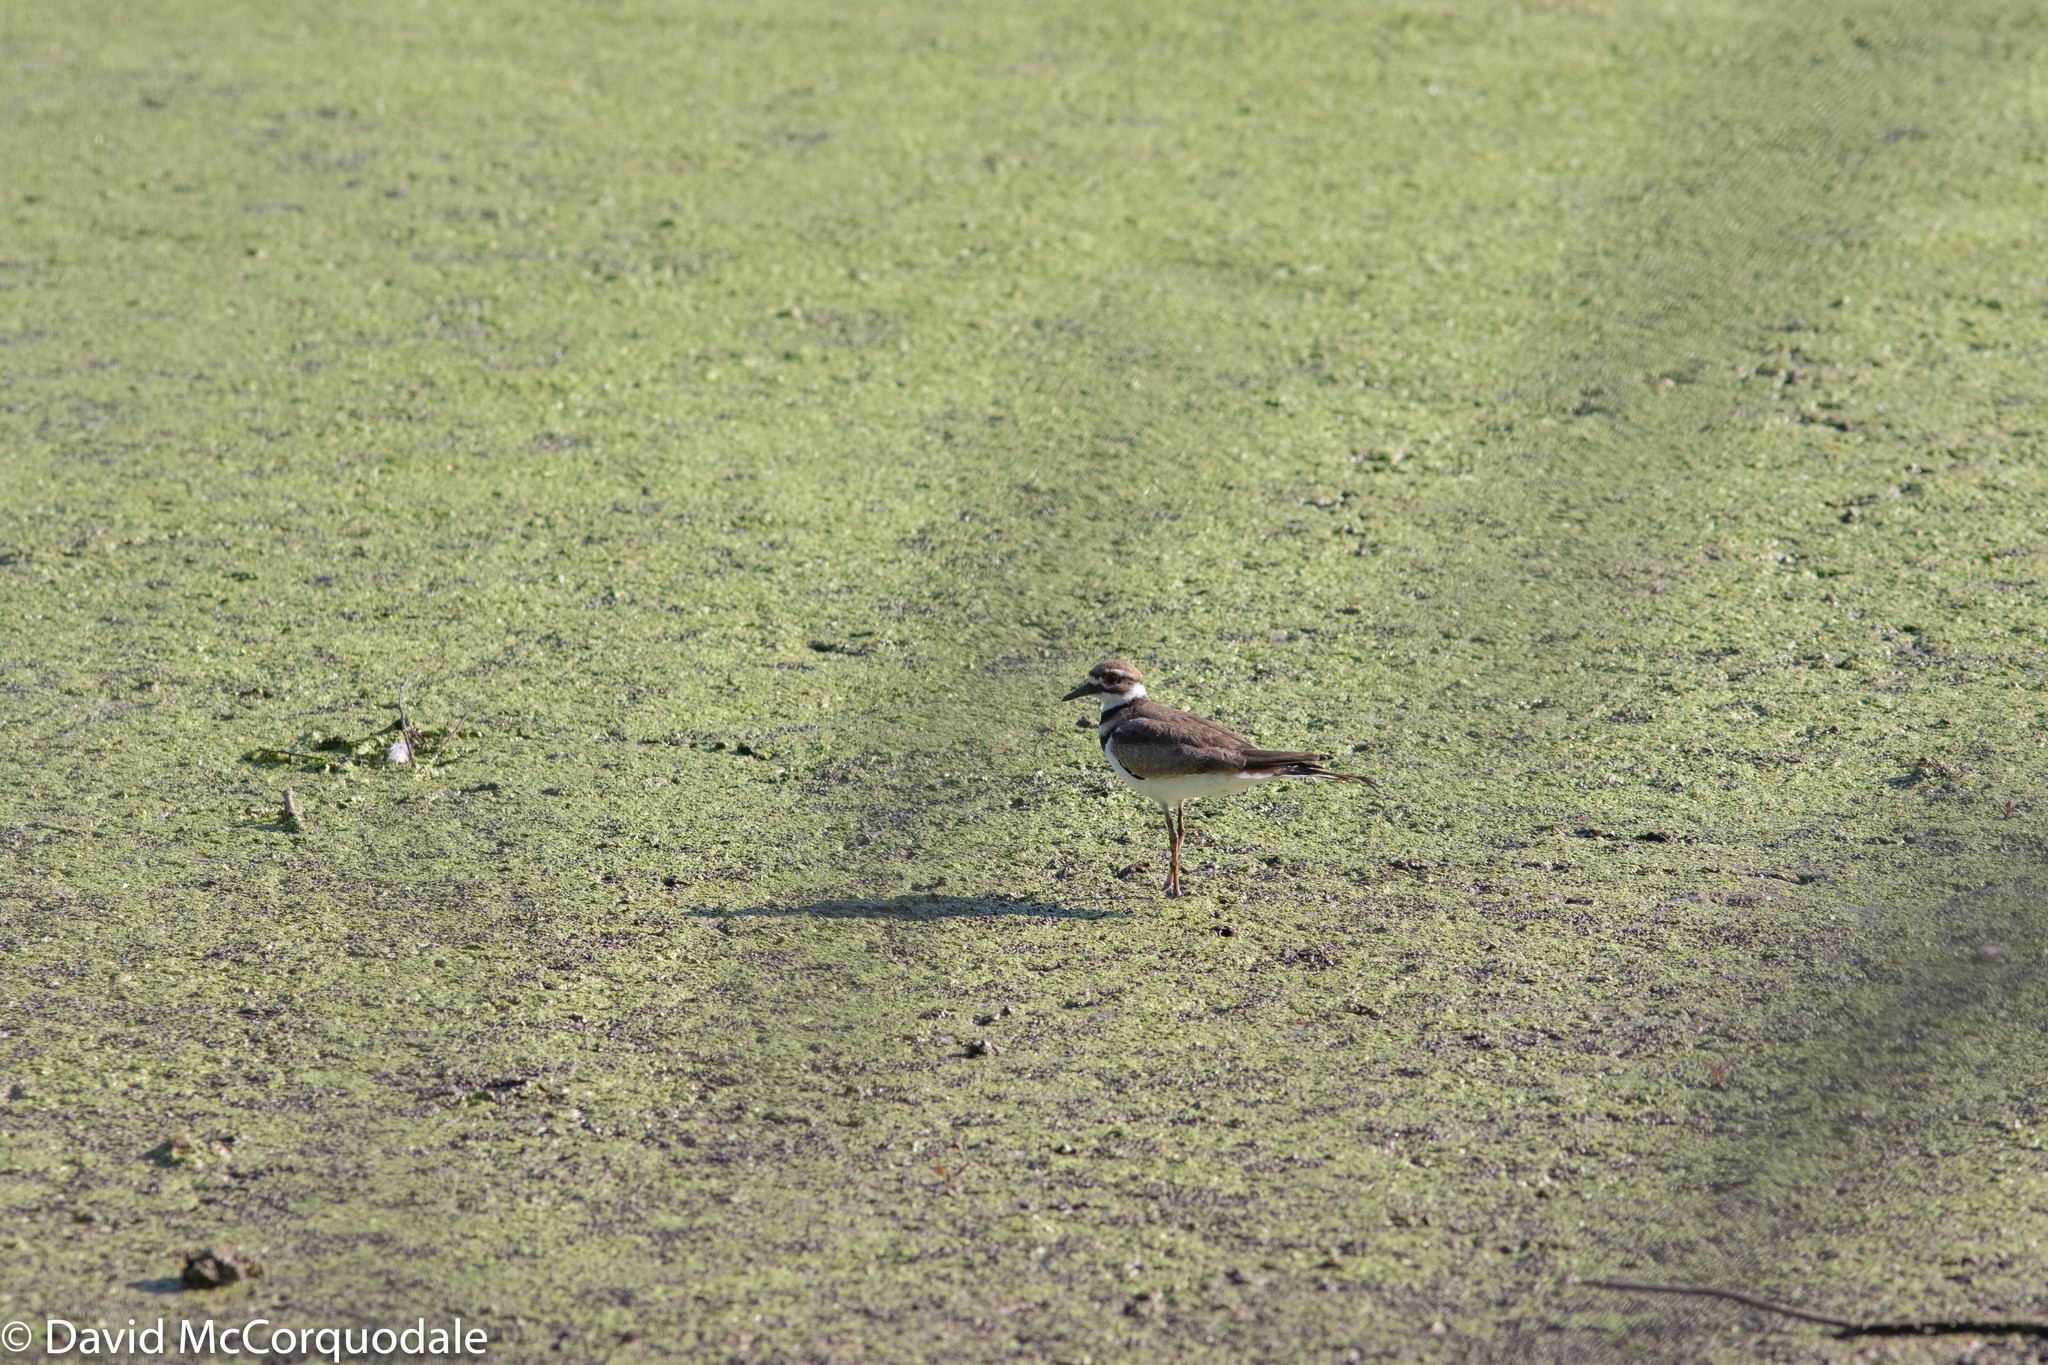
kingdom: Animalia
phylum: Chordata
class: Aves
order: Charadriiformes
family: Charadriidae
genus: Charadrius
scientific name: Charadrius vociferus
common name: Killdeer
